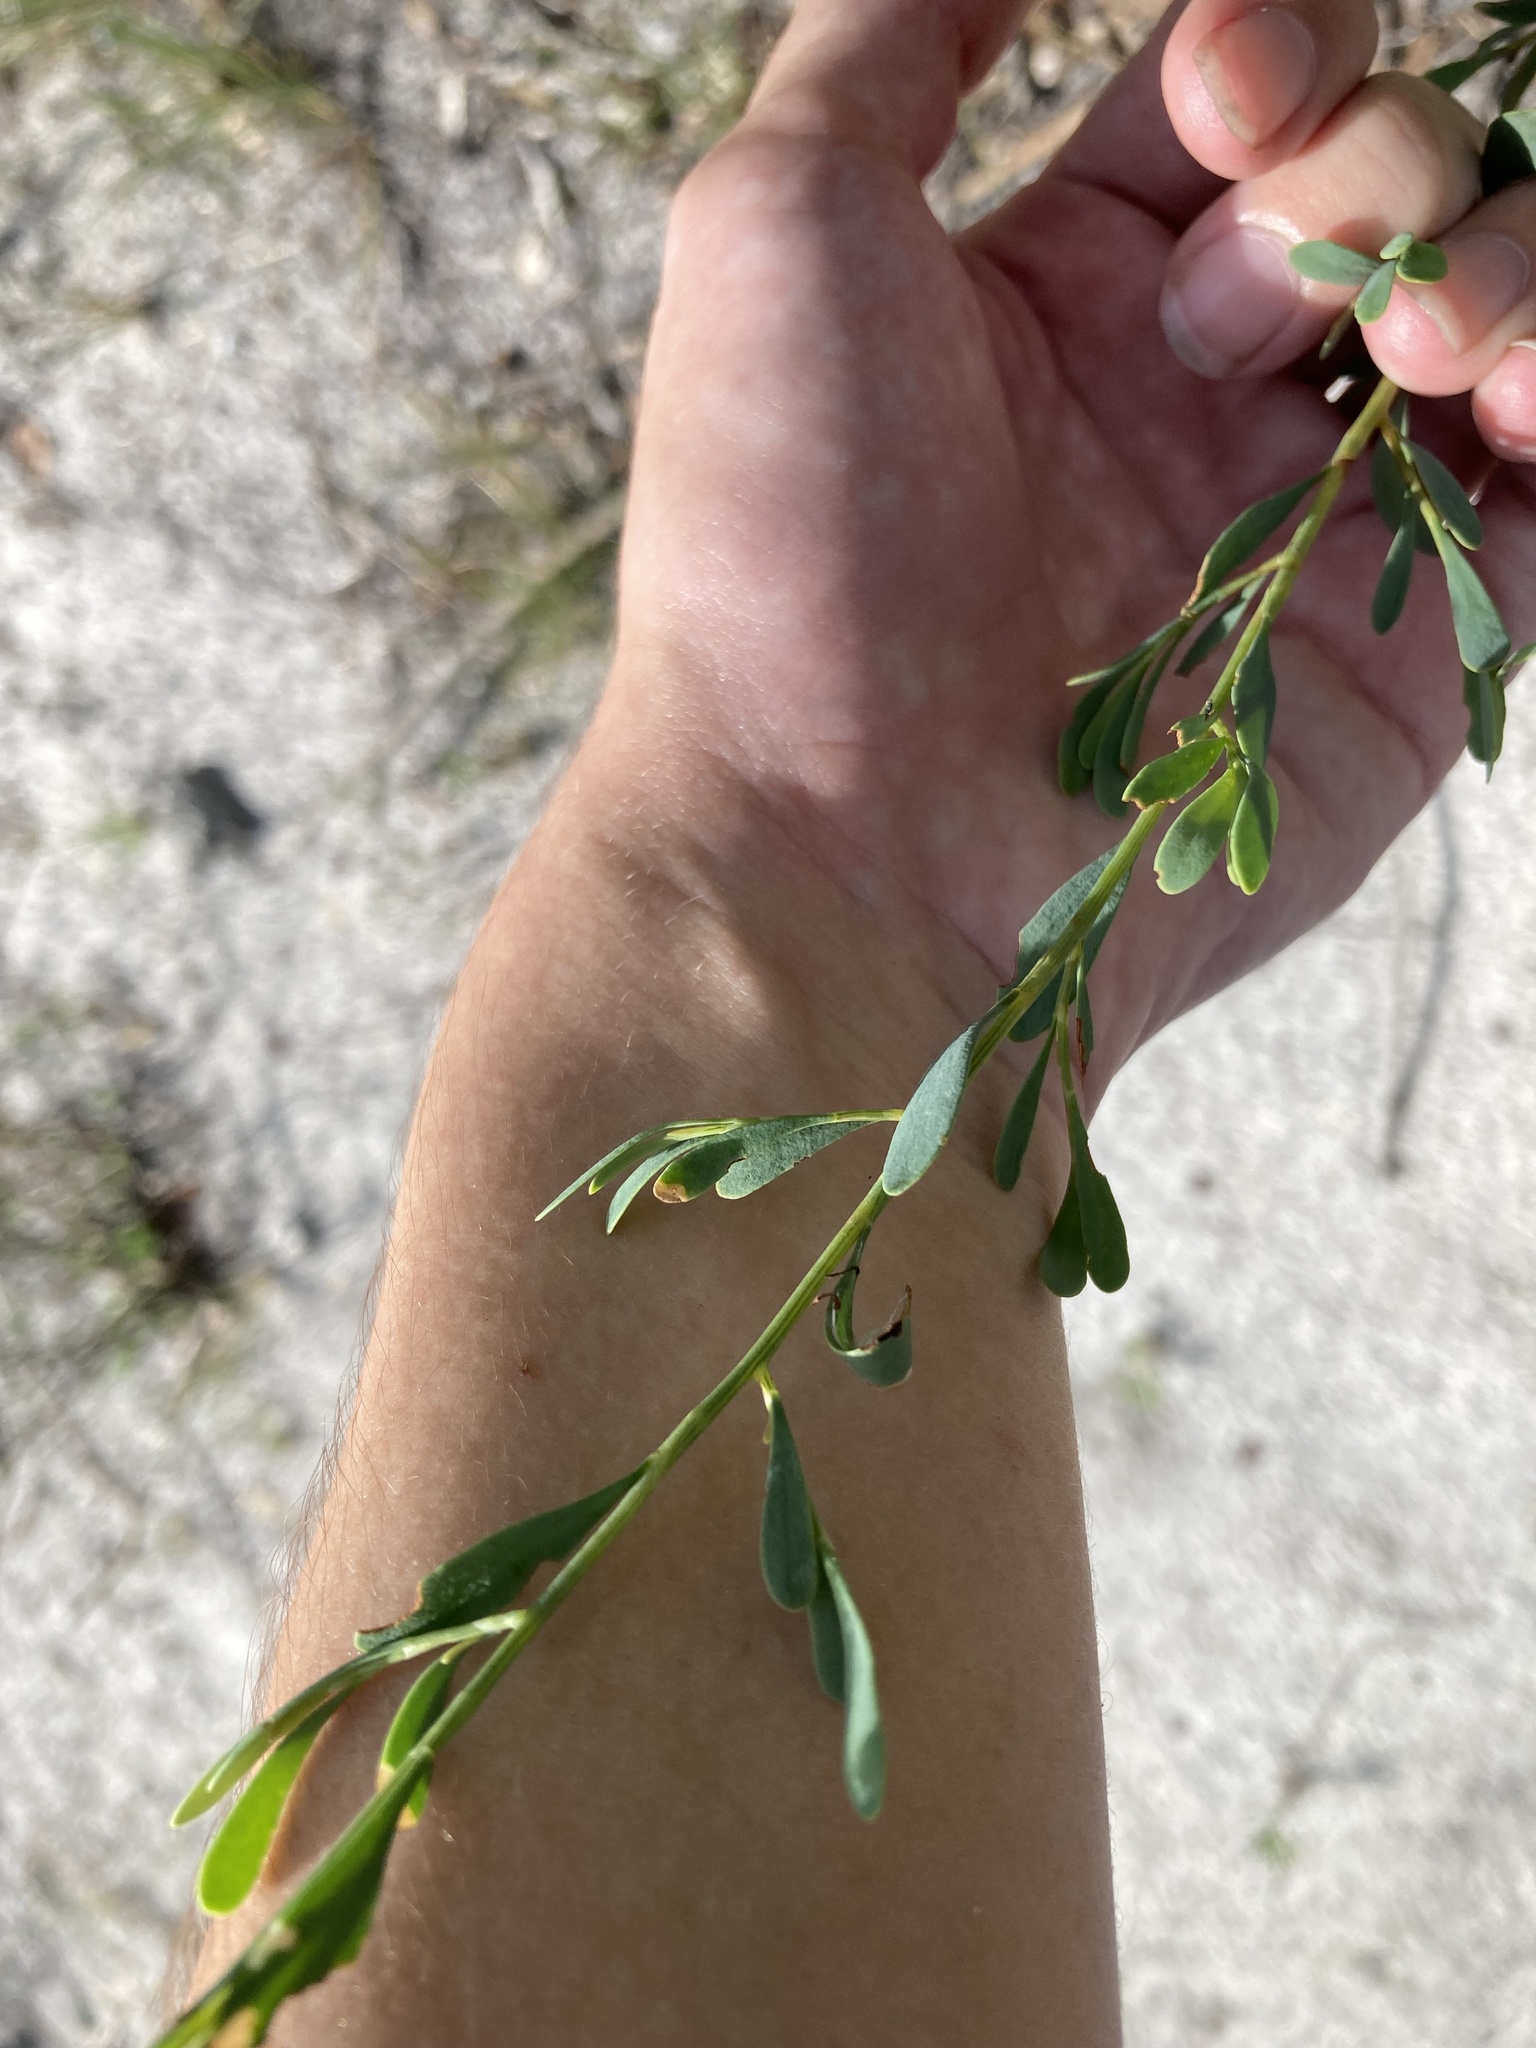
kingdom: Plantae
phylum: Tracheophyta
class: Magnoliopsida
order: Caryophyllales
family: Polygonaceae
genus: Polygonella
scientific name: Polygonella polygama
